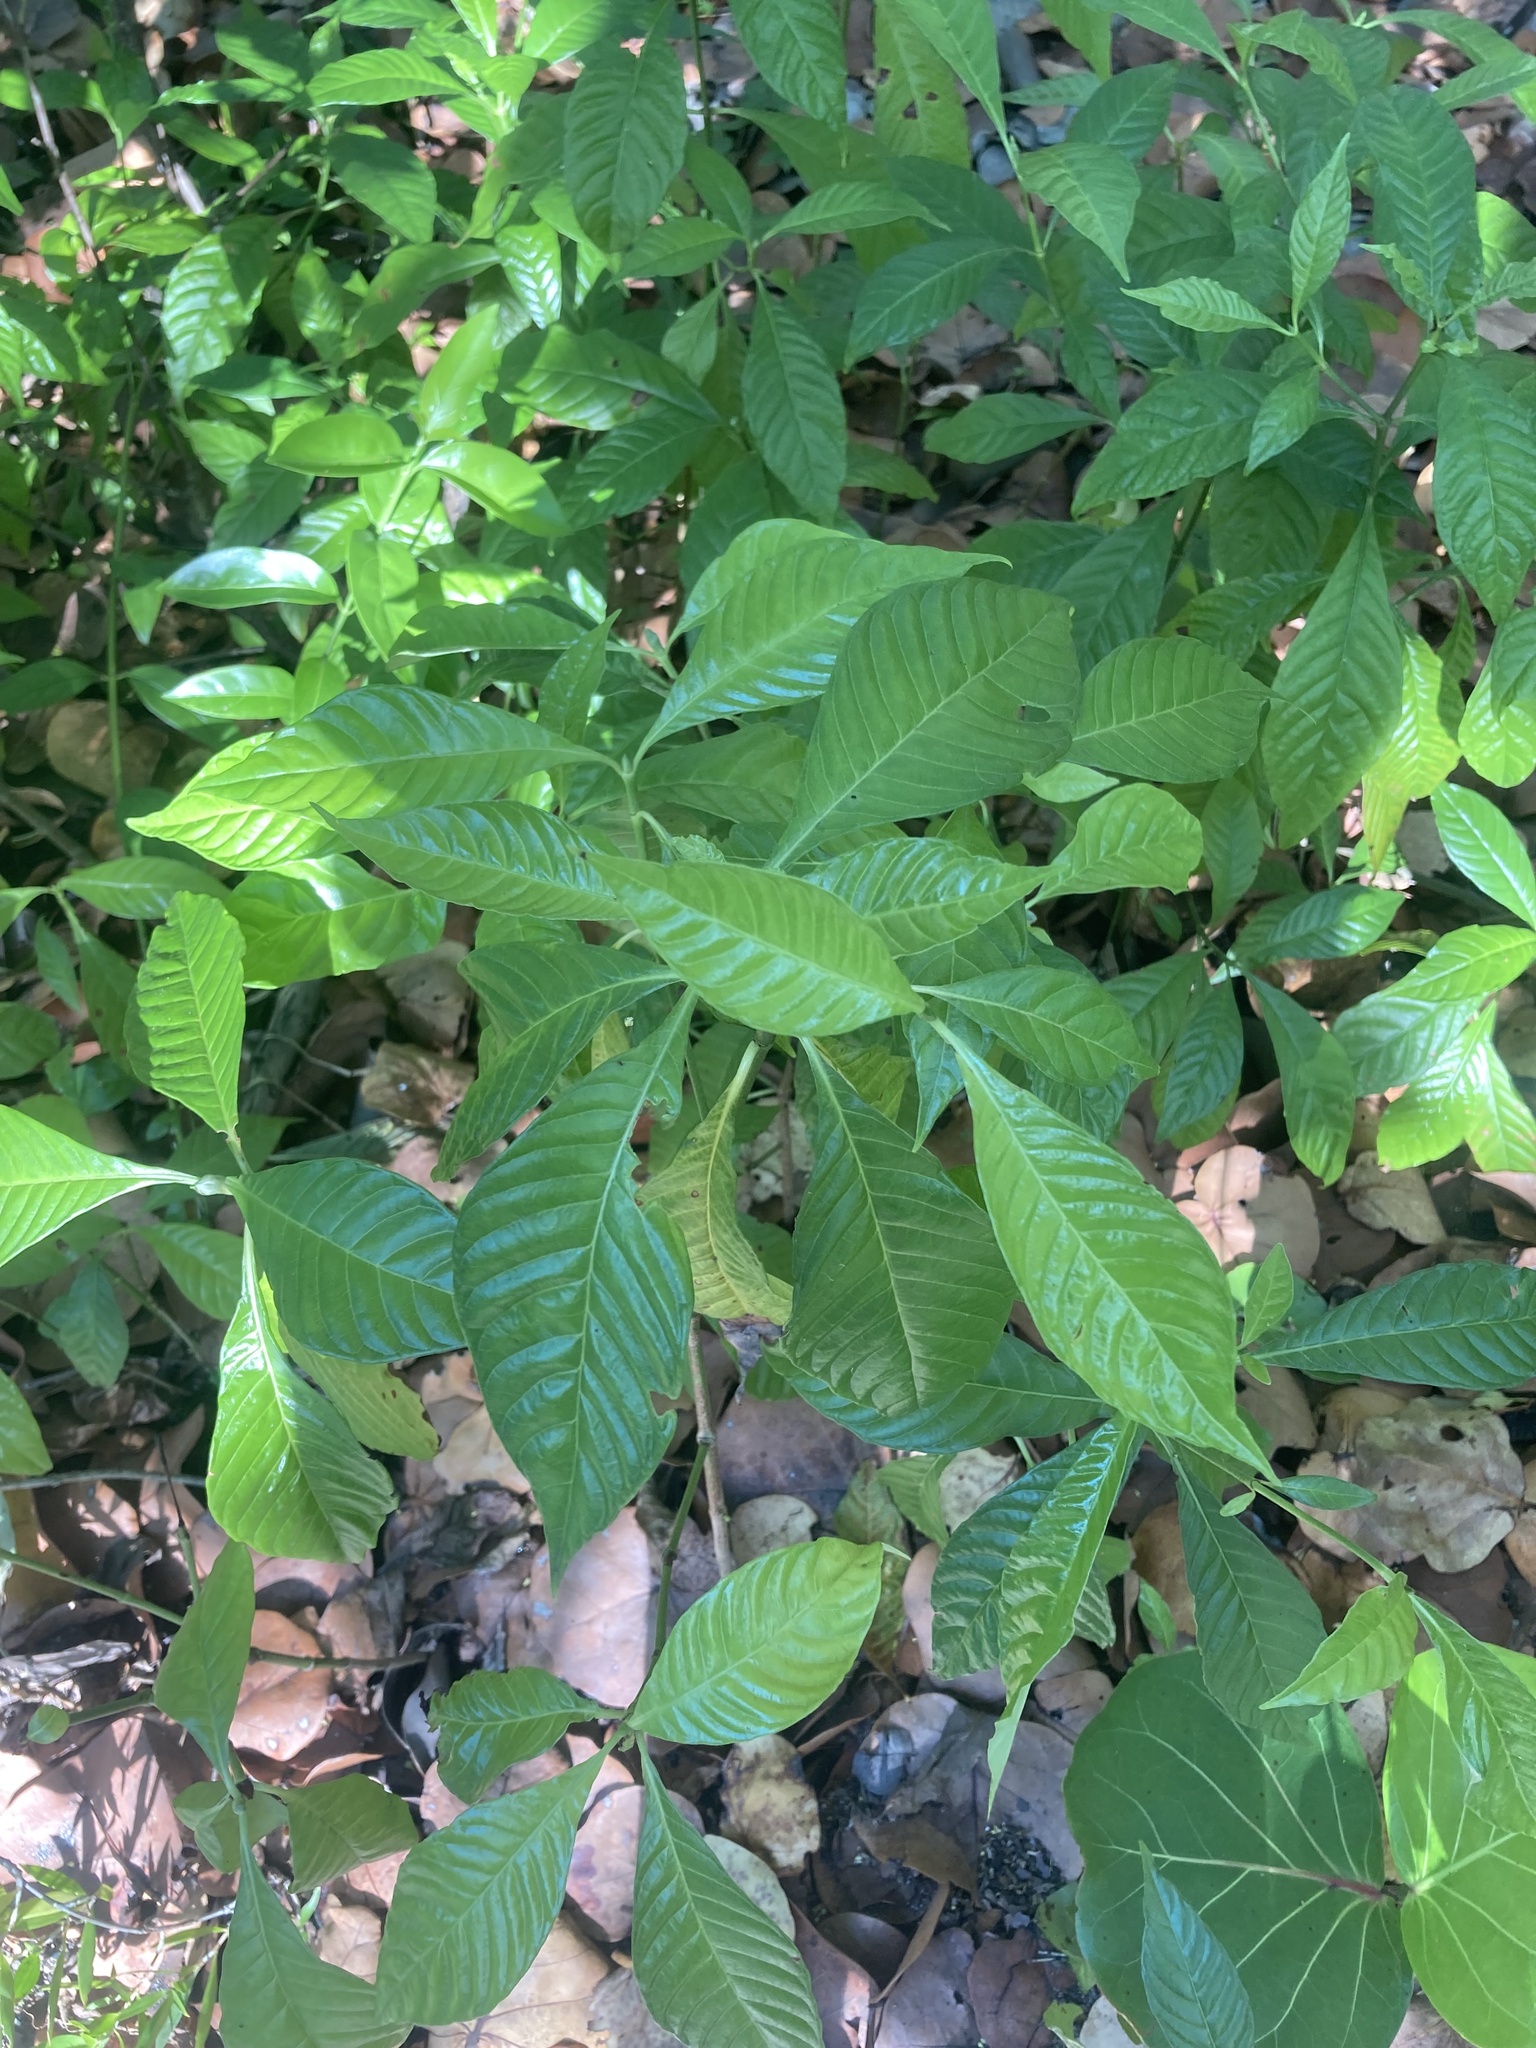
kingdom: Plantae
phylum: Tracheophyta
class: Magnoliopsida
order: Gentianales
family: Rubiaceae
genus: Psychotria
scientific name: Psychotria nervosa
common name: Bastard cankerberry
